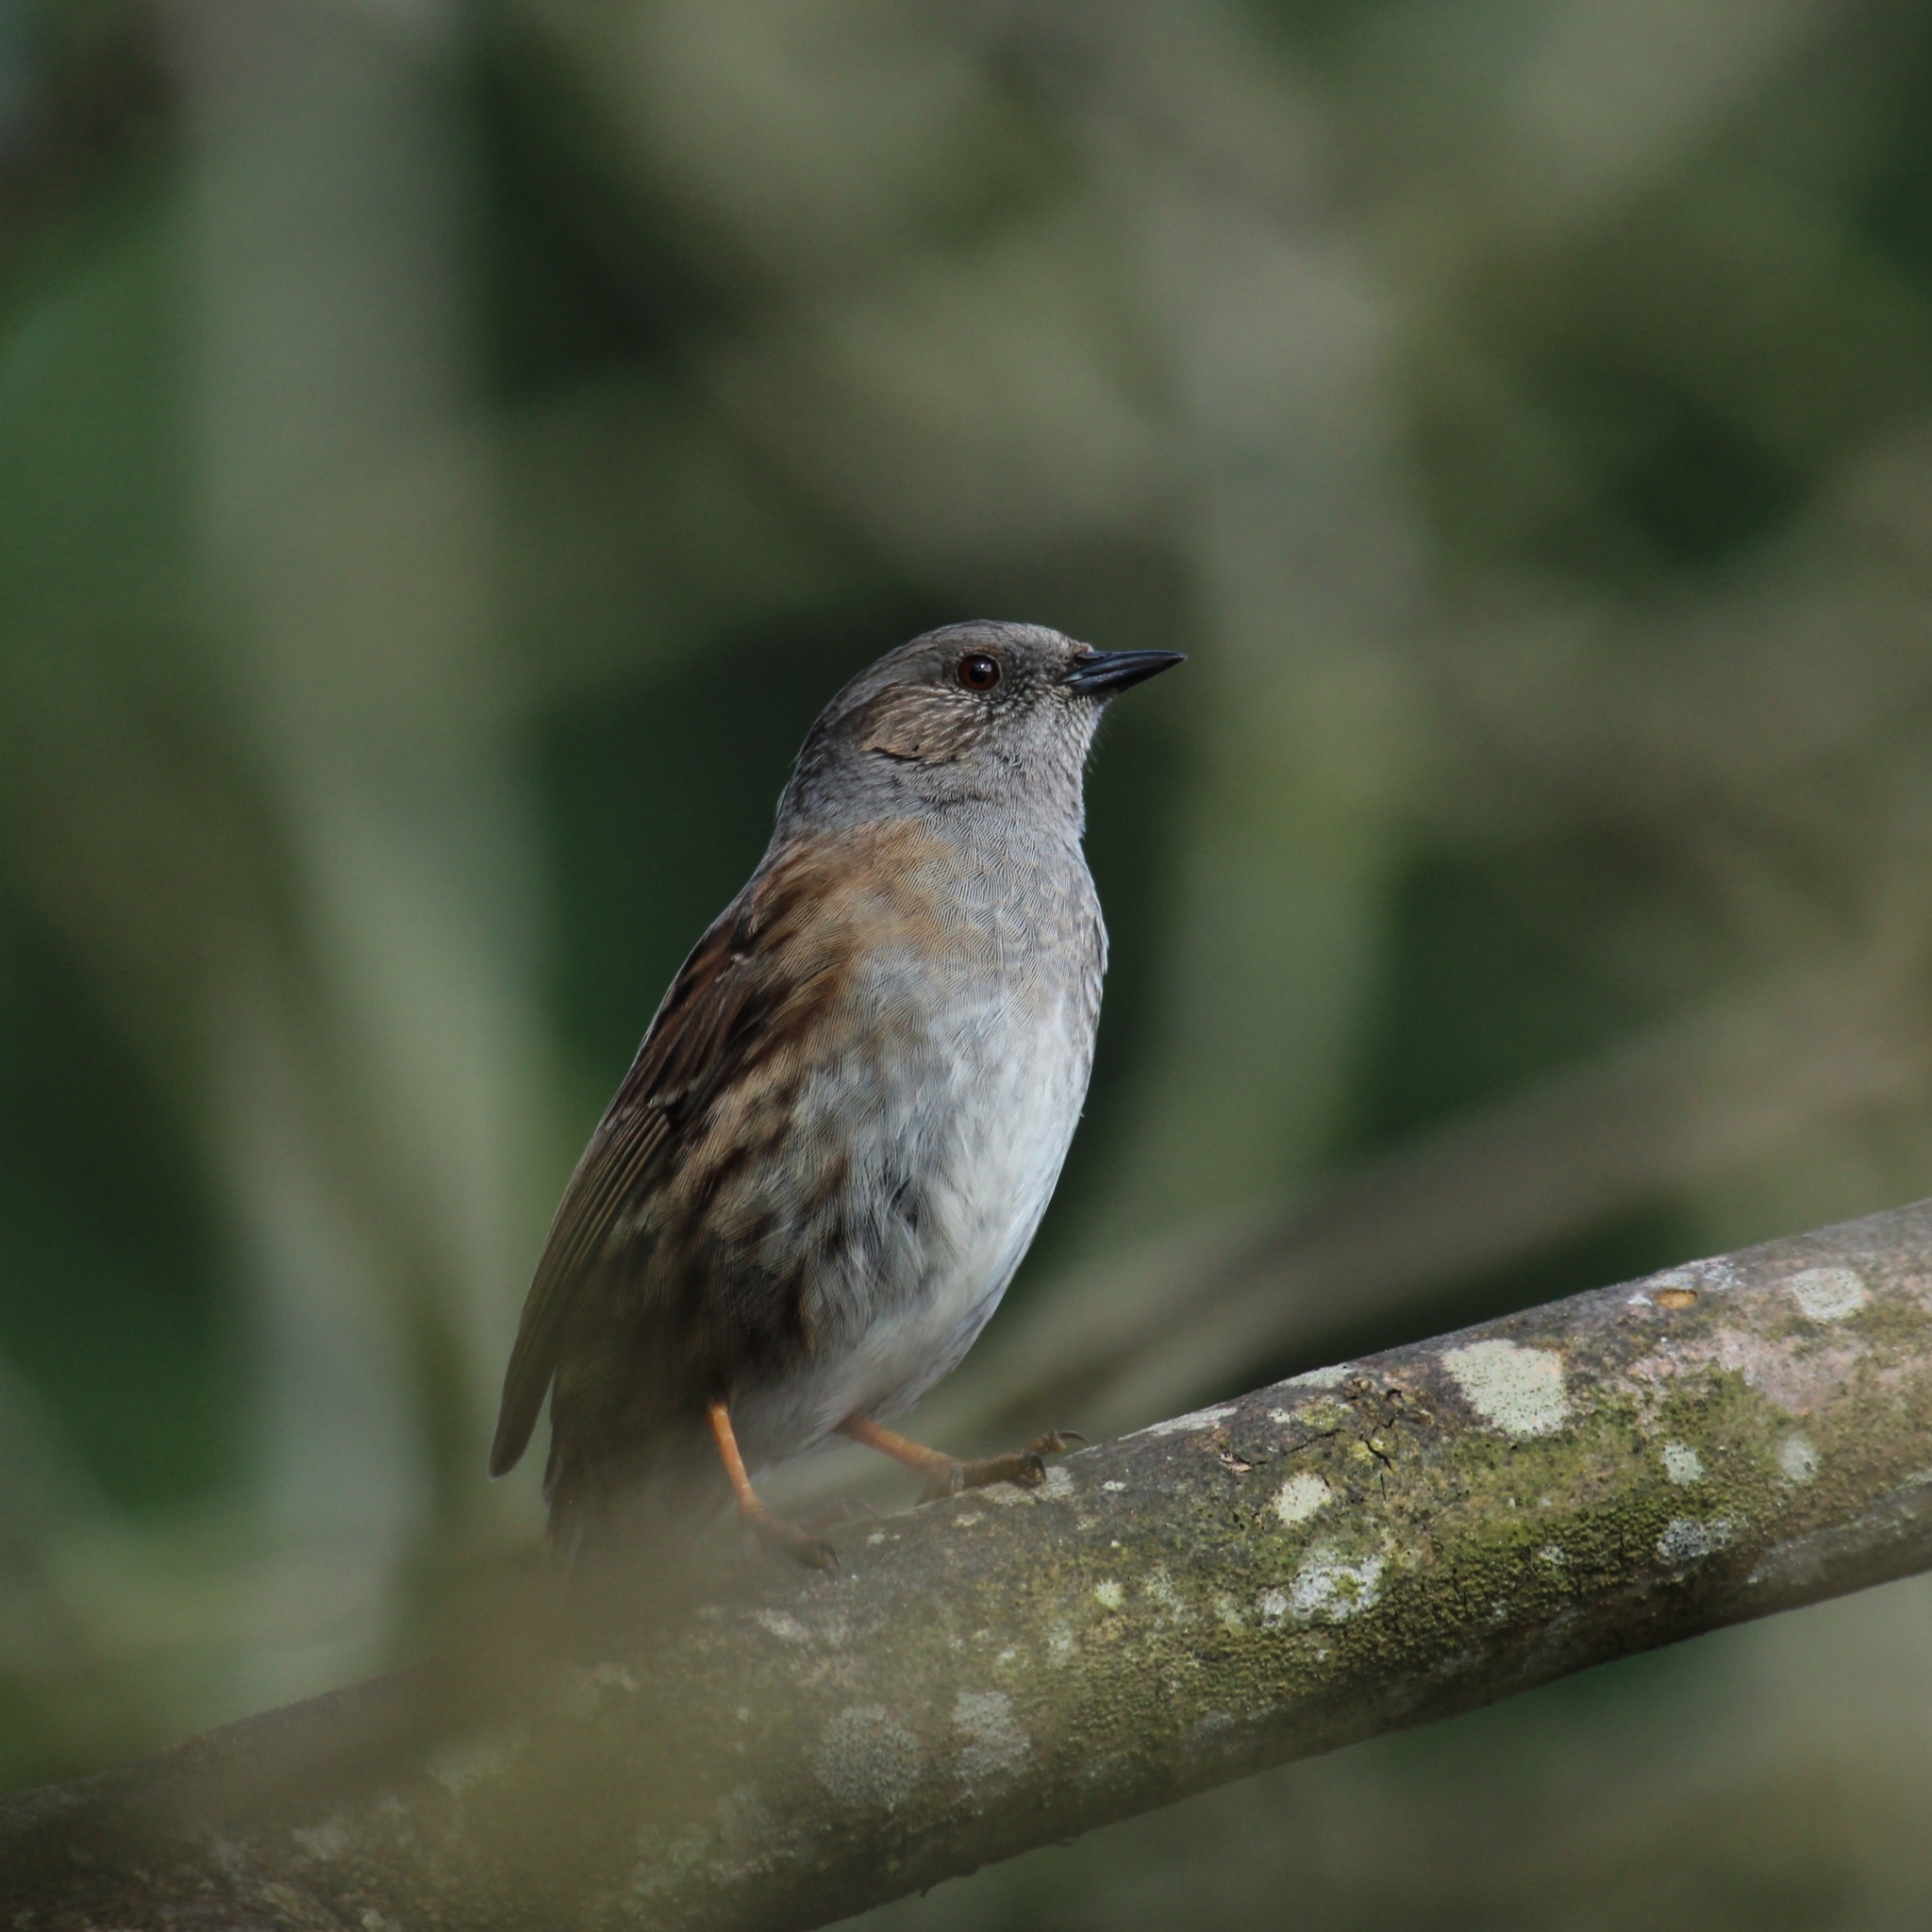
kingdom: Animalia
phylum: Chordata
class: Aves
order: Passeriformes
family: Prunellidae
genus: Prunella
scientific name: Prunella modularis
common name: Dunnock
